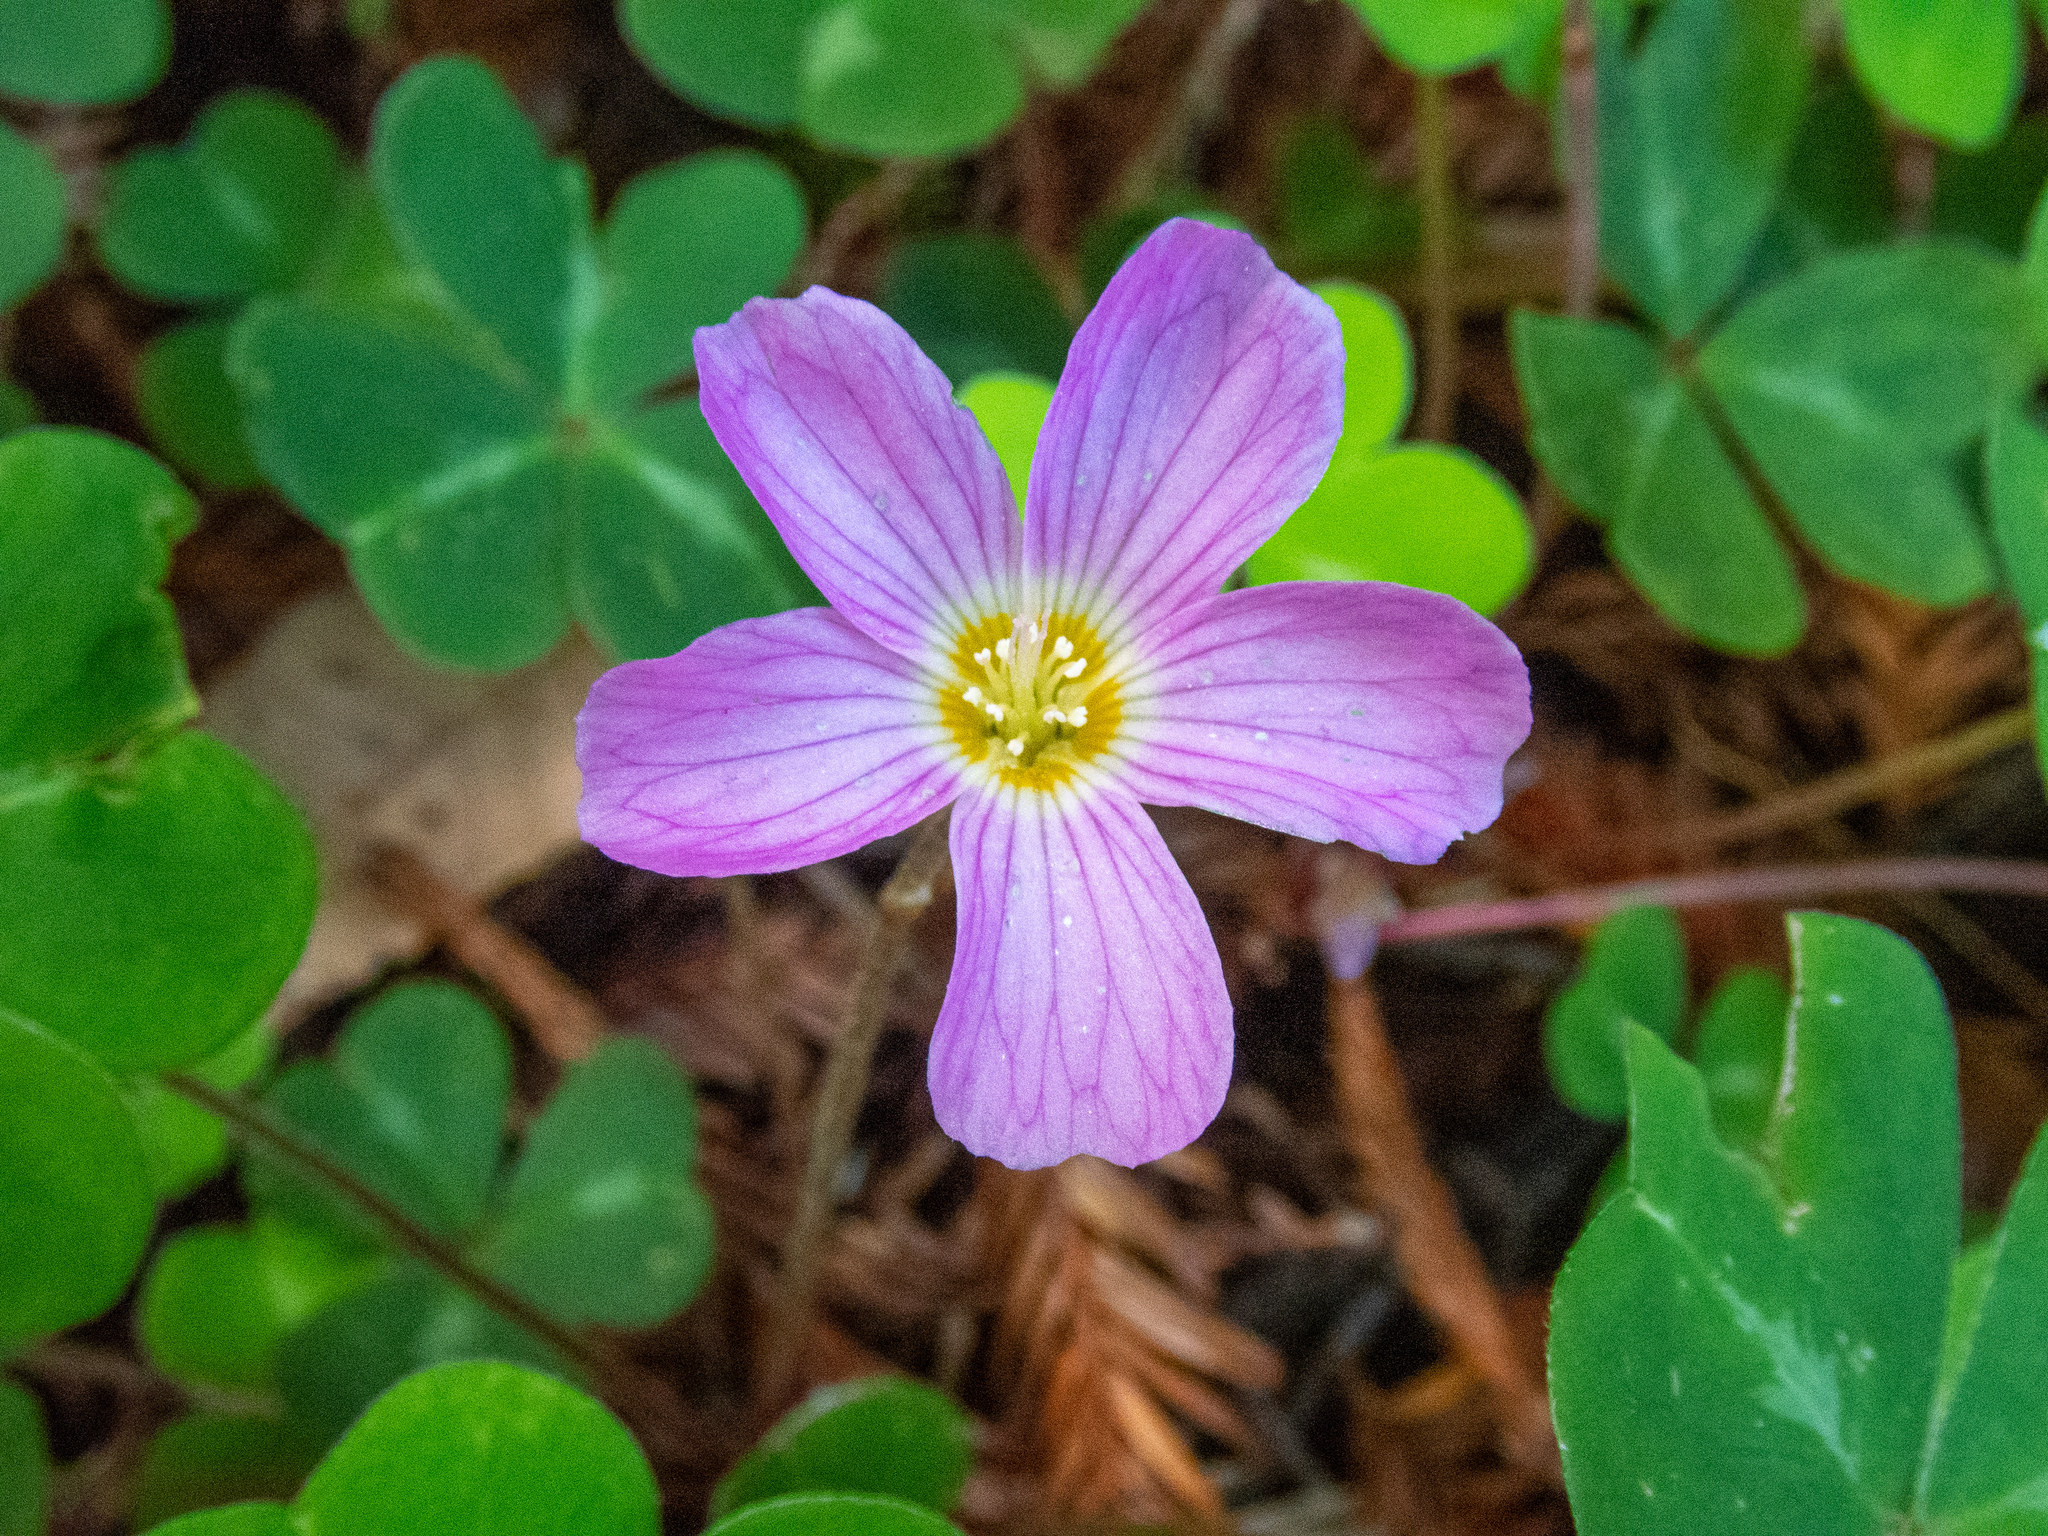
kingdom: Plantae
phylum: Tracheophyta
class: Magnoliopsida
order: Oxalidales
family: Oxalidaceae
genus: Oxalis
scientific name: Oxalis oregana
